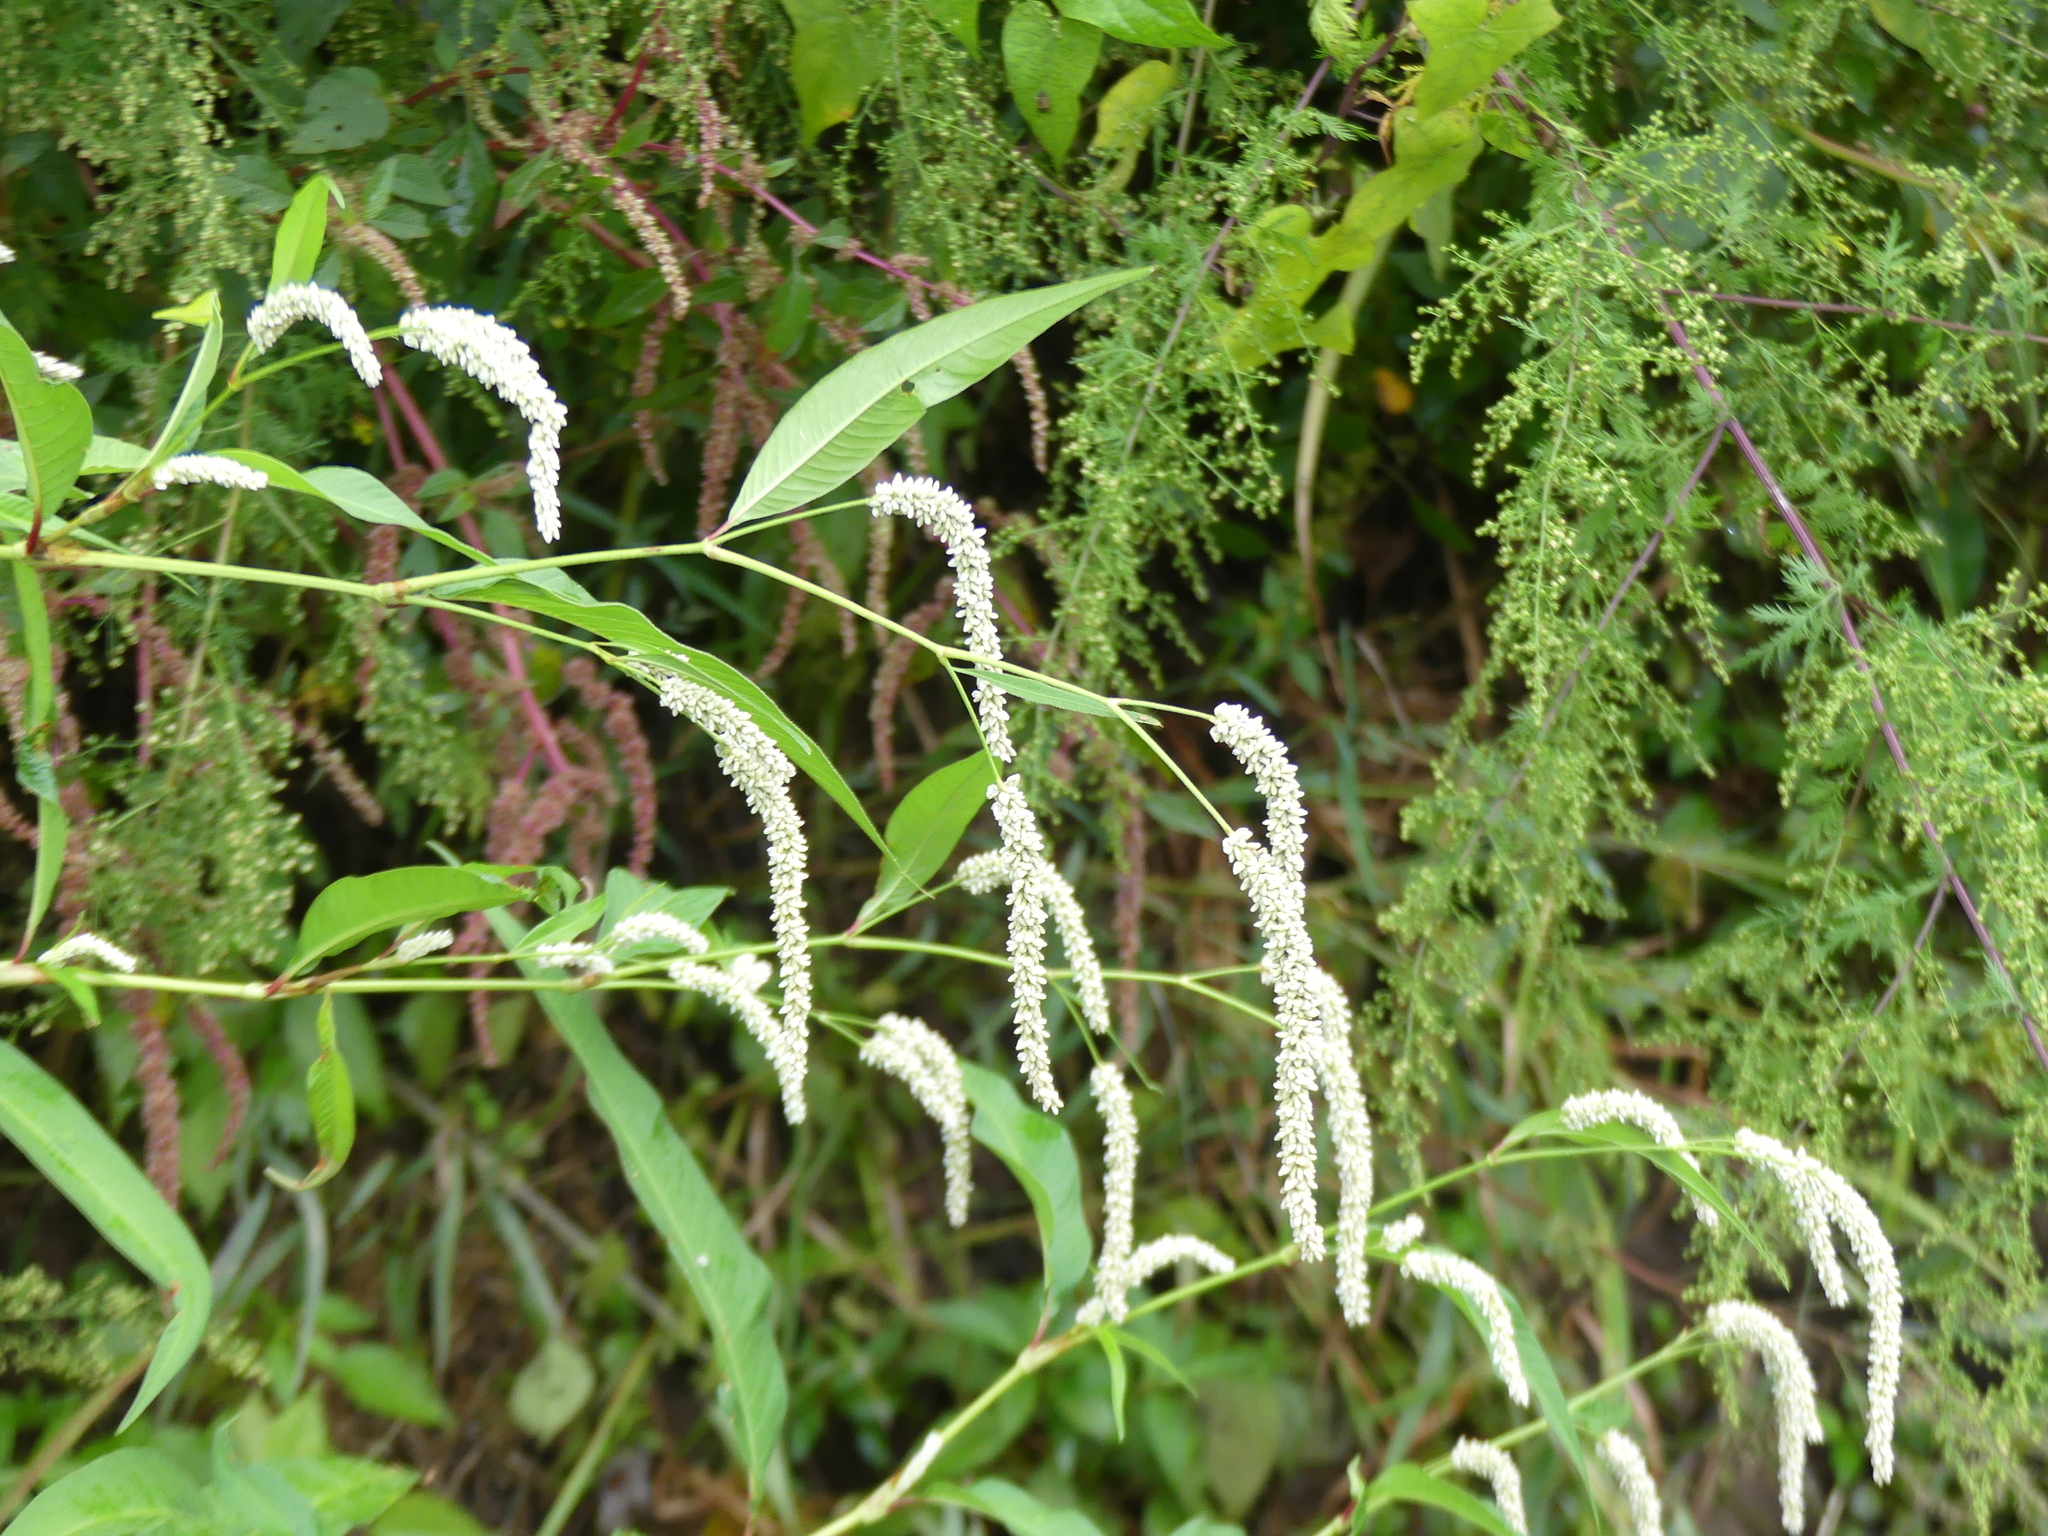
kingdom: Plantae
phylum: Tracheophyta
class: Magnoliopsida
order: Caryophyllales
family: Polygonaceae
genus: Persicaria
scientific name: Persicaria lapathifolia
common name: Curlytop knotweed
